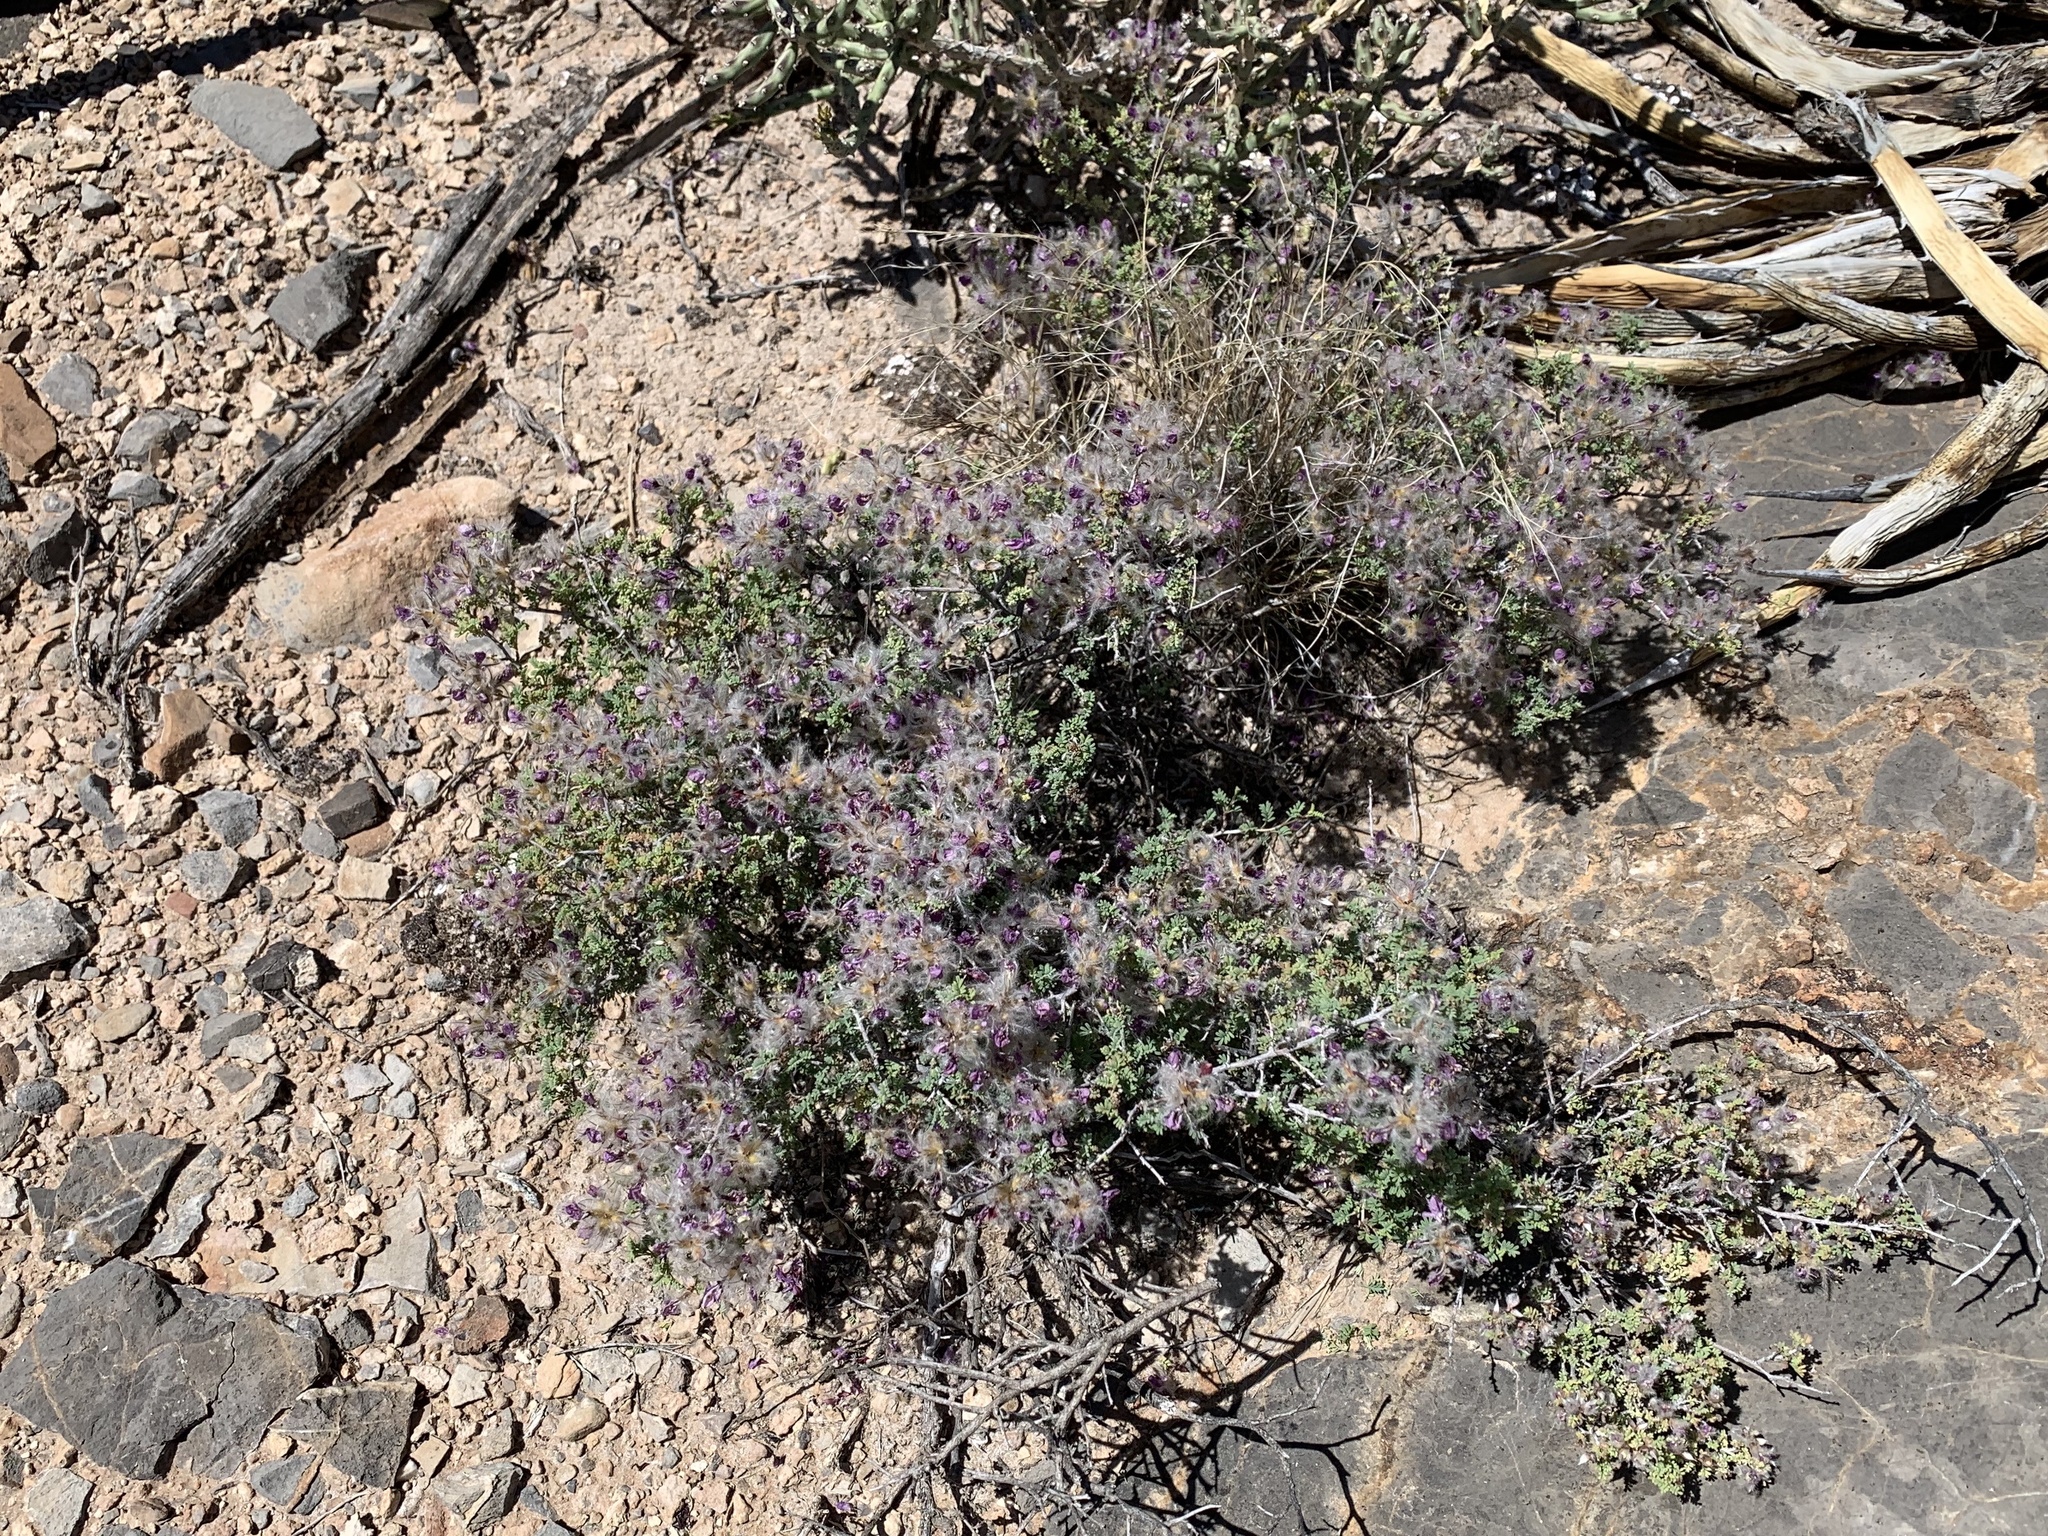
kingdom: Plantae
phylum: Tracheophyta
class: Magnoliopsida
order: Fabales
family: Fabaceae
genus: Dalea
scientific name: Dalea formosa
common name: Feather-plume dalea
